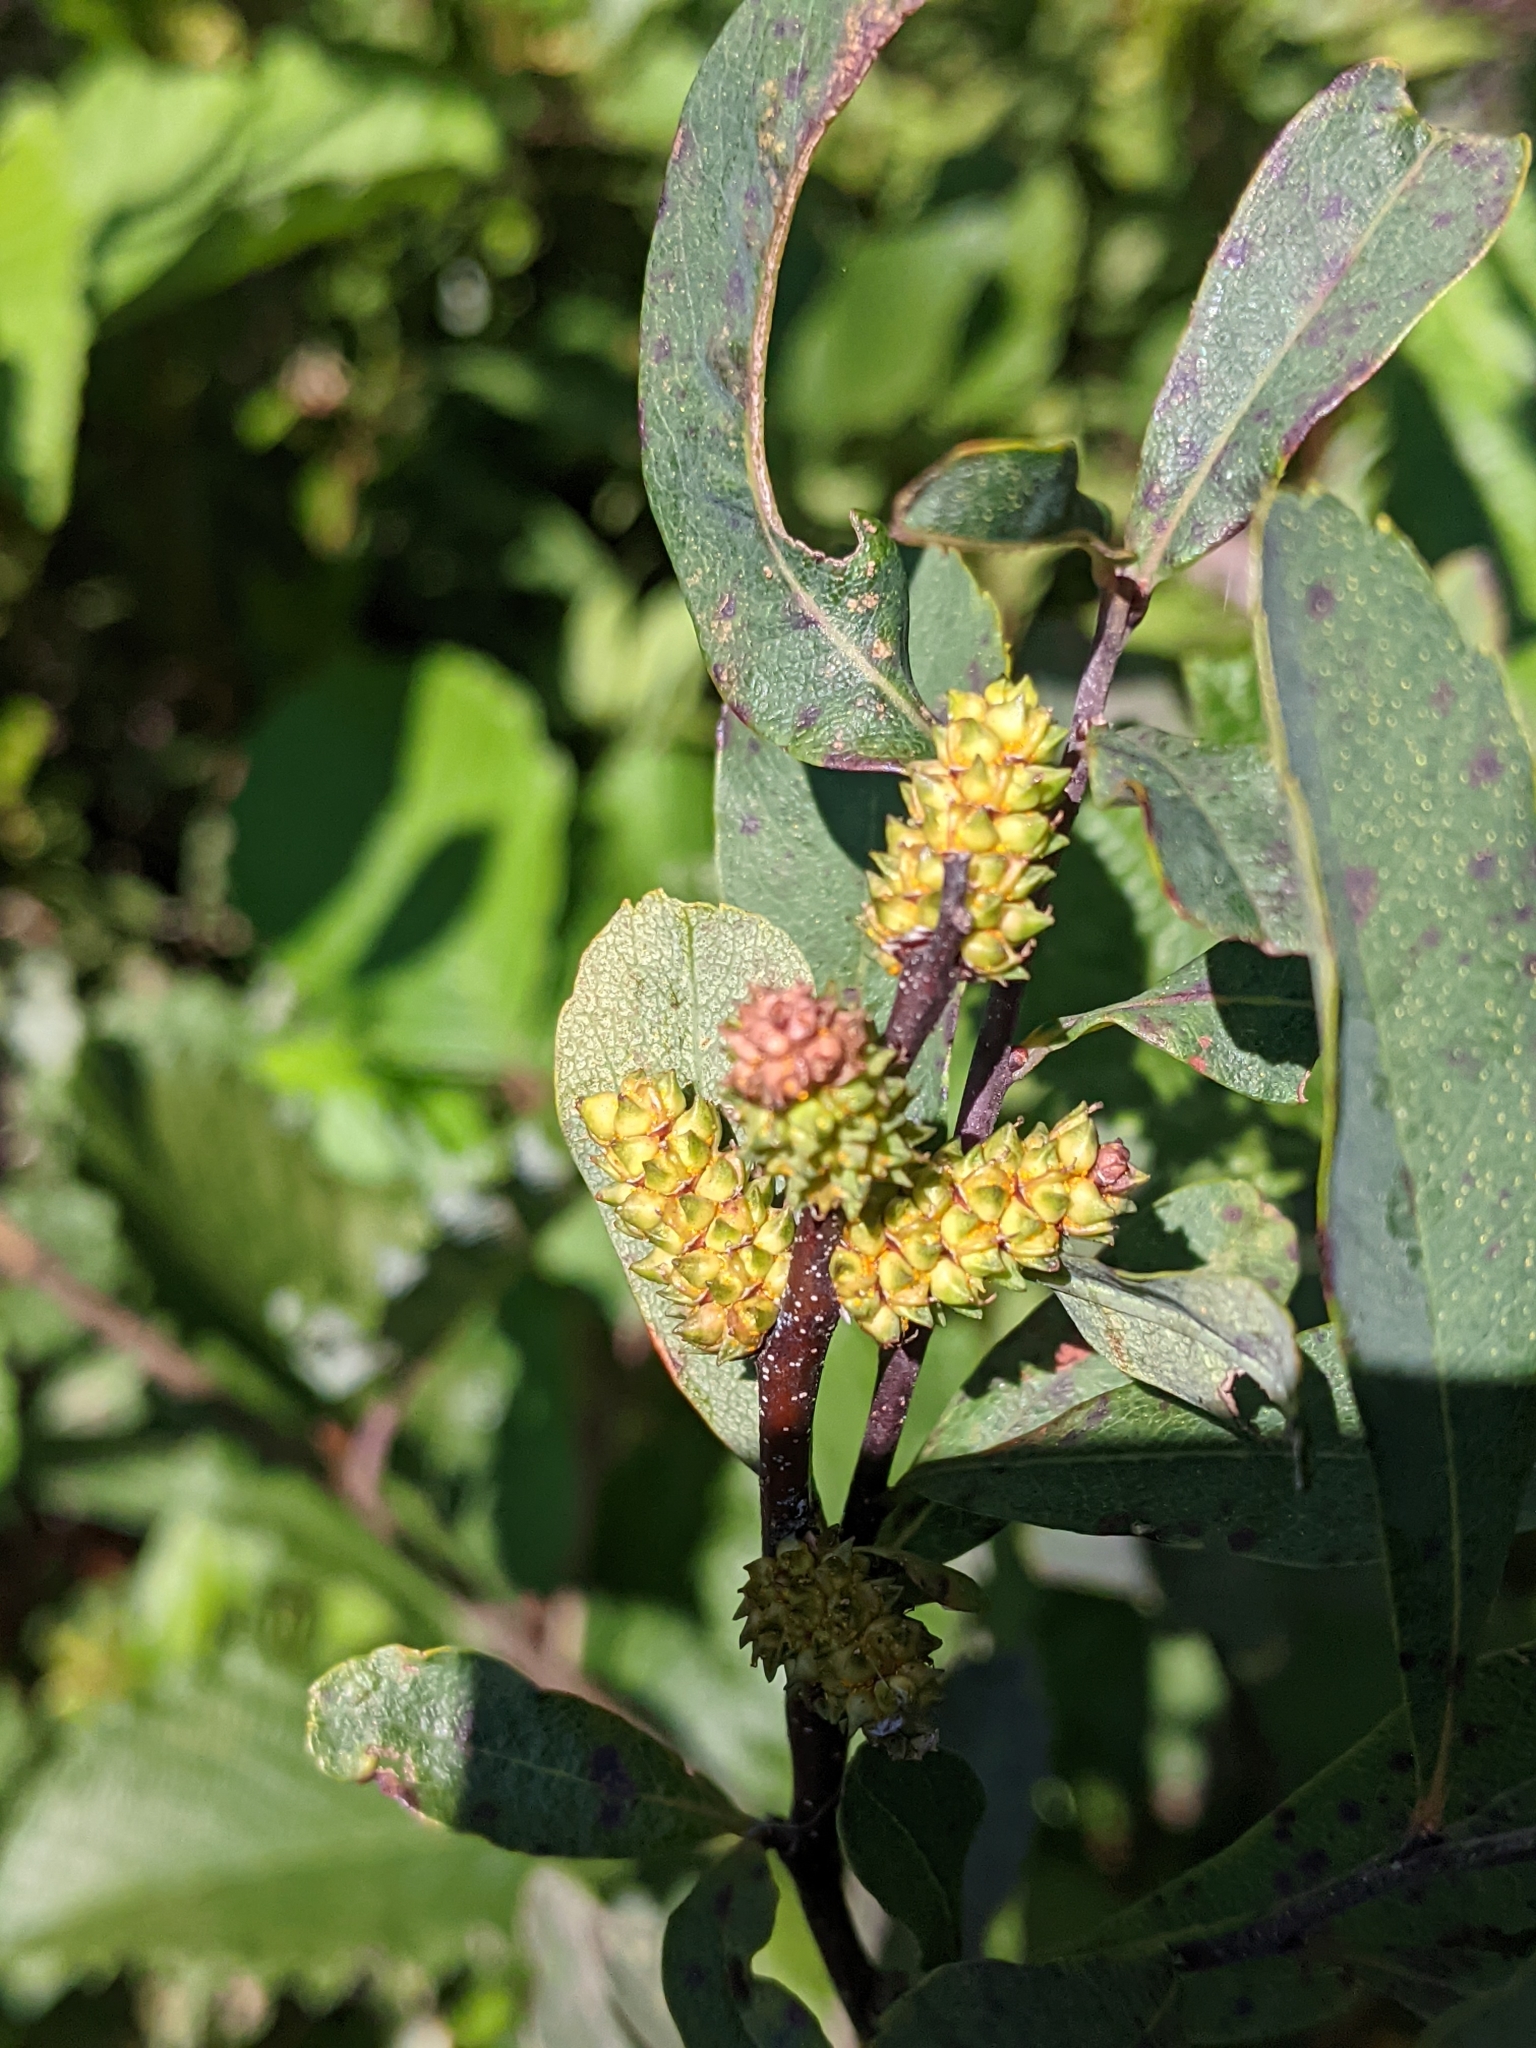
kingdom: Plantae
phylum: Tracheophyta
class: Magnoliopsida
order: Fagales
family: Myricaceae
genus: Myrica
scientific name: Myrica gale
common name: Sweet gale
